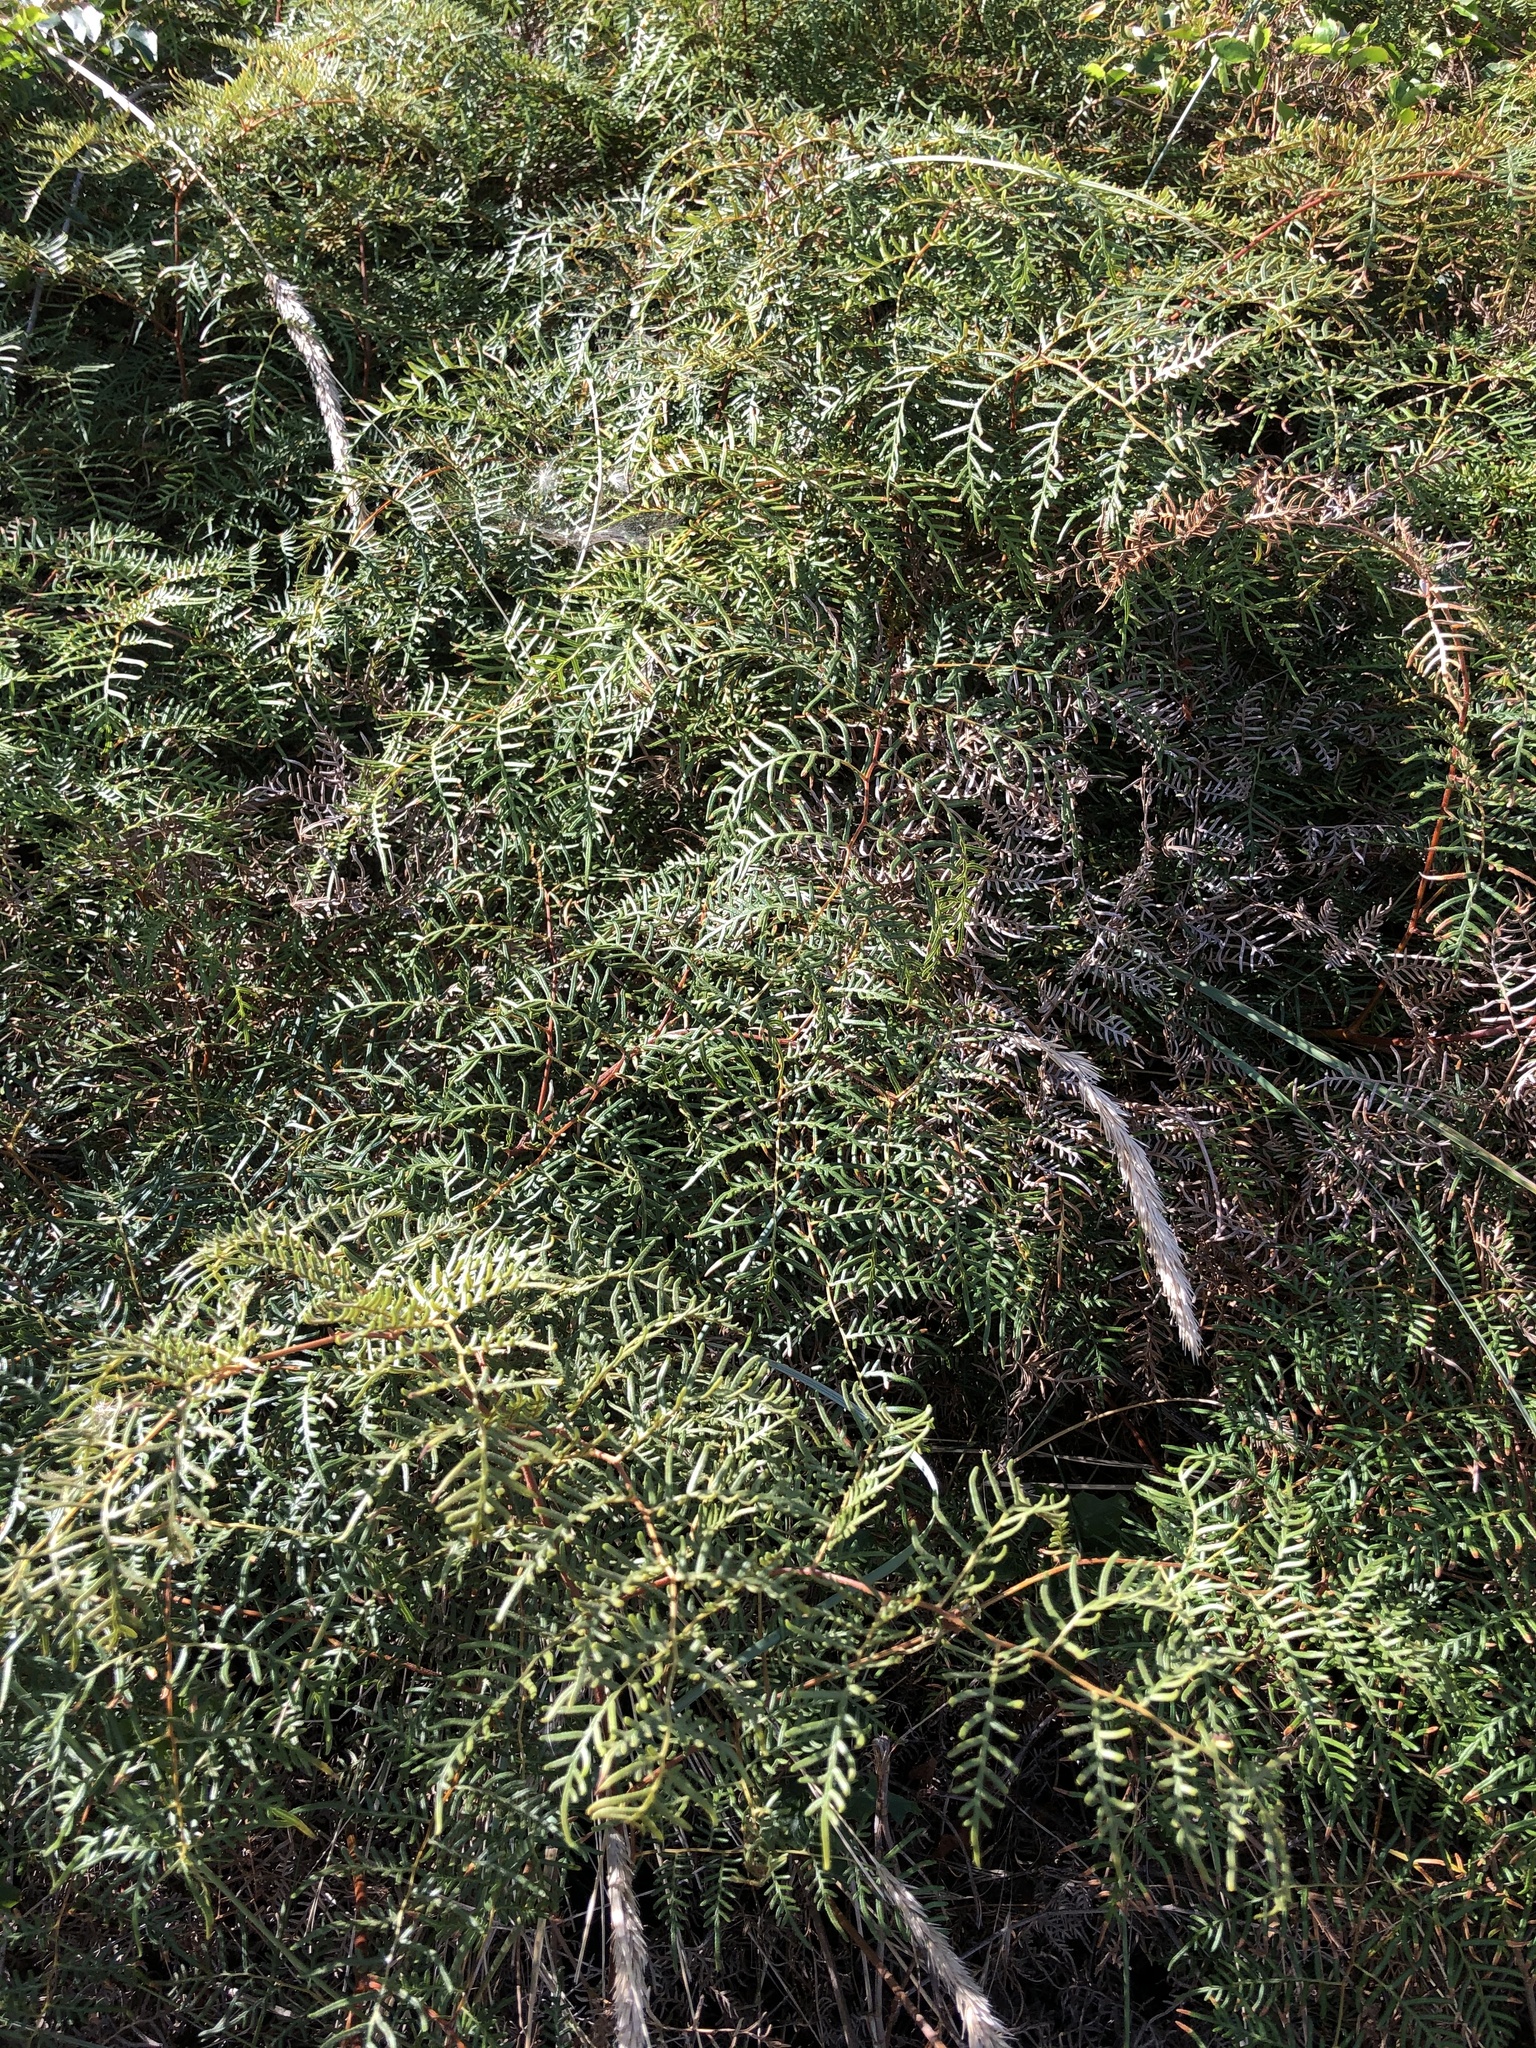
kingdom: Plantae
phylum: Tracheophyta
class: Polypodiopsida
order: Polypodiales
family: Dennstaedtiaceae
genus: Pteridium
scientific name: Pteridium esculentum
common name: Bracken fern
